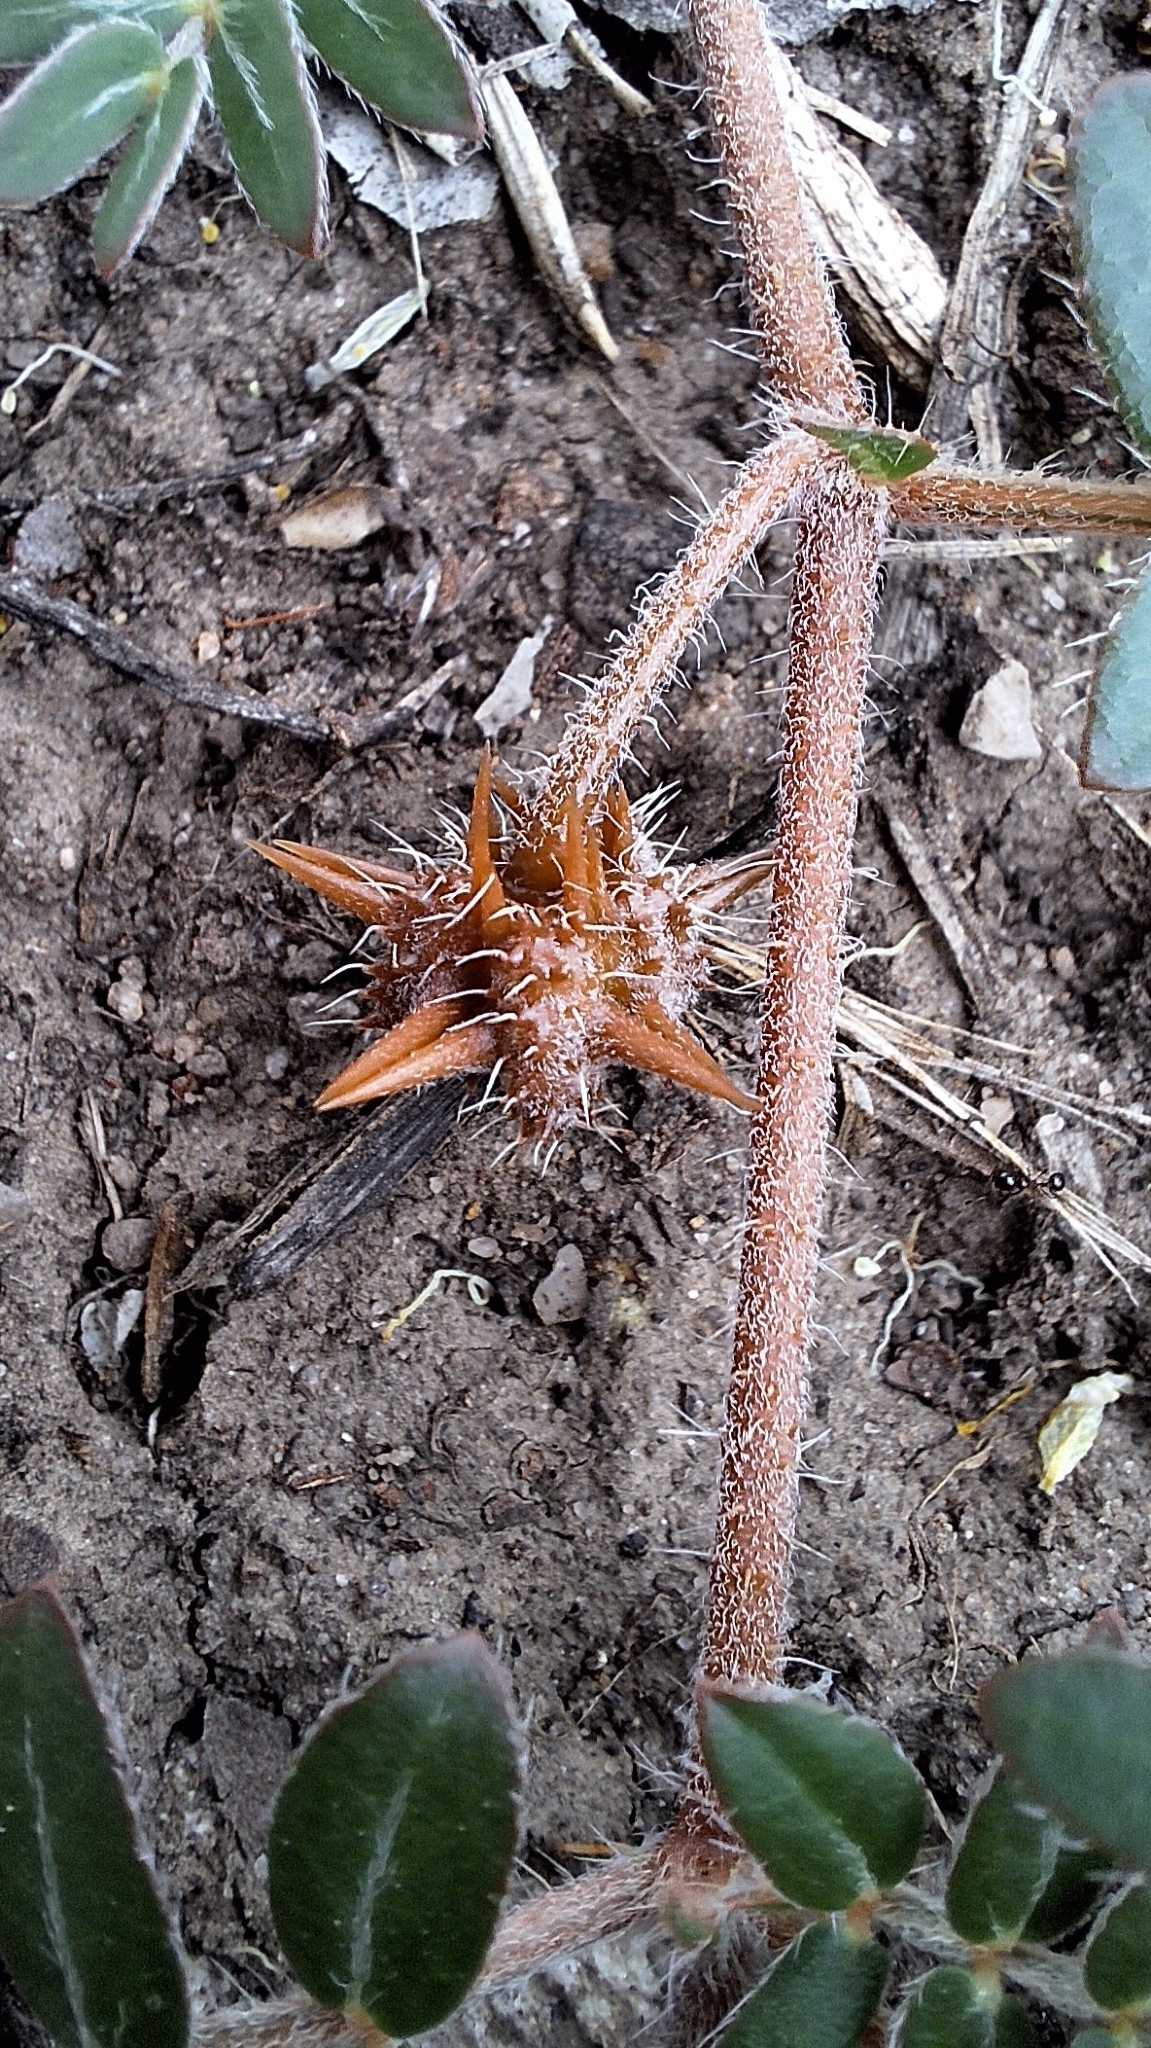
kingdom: Plantae
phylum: Tracheophyta
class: Magnoliopsida
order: Zygophyllales
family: Zygophyllaceae
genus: Tribulus
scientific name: Tribulus terrestris
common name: Puncturevine
